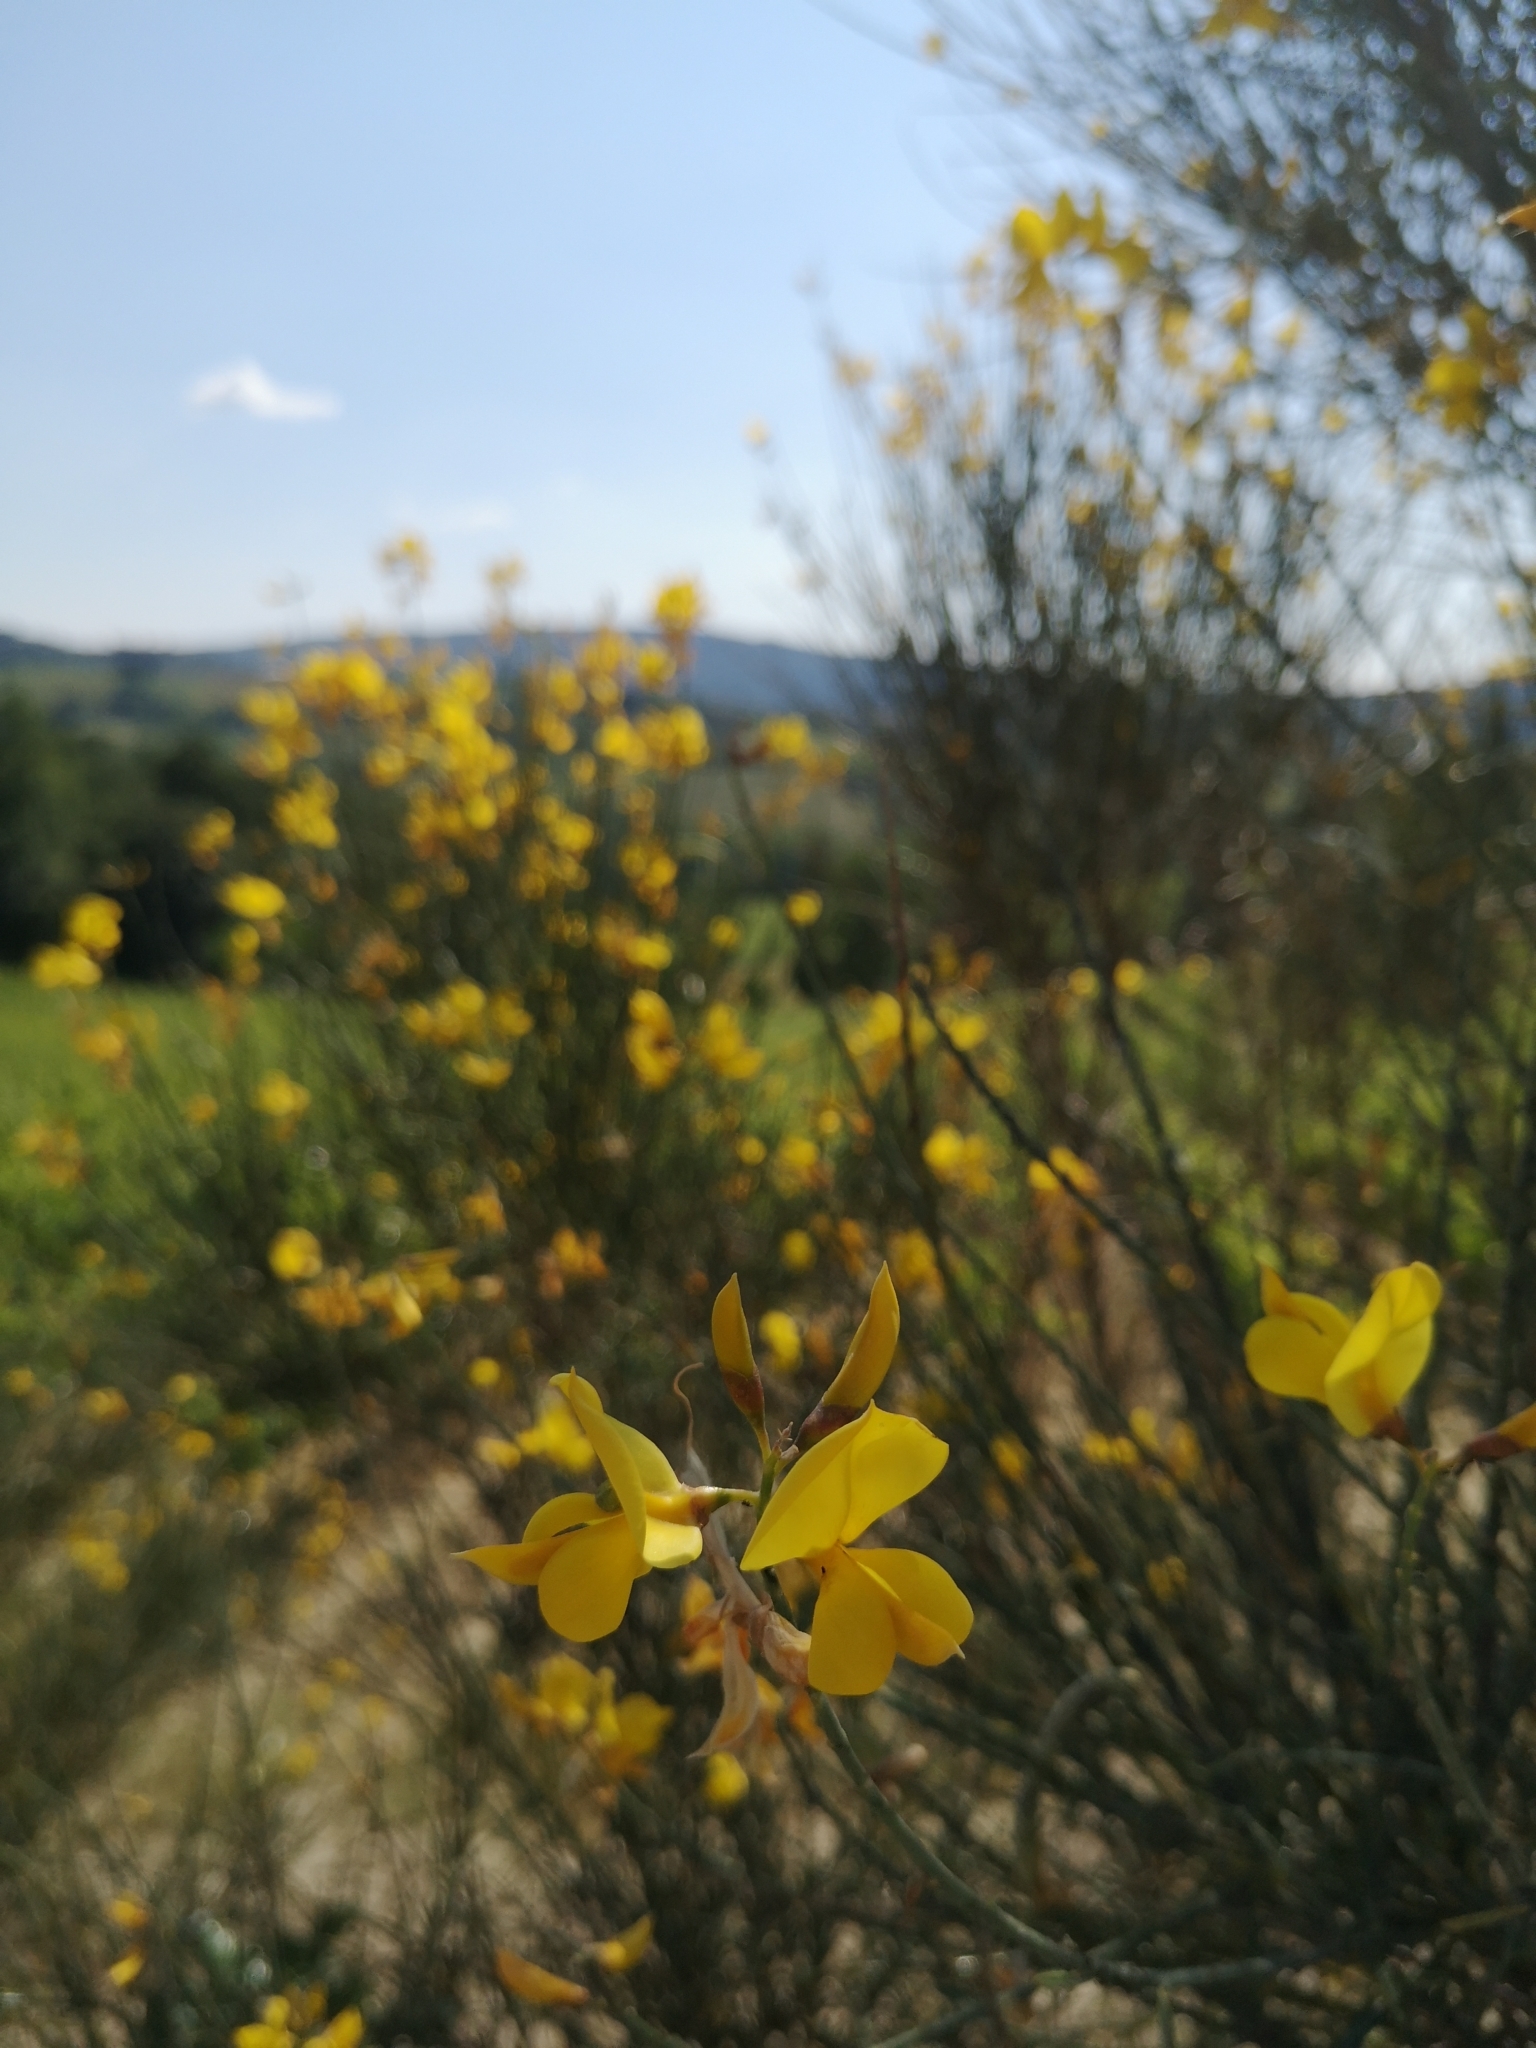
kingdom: Plantae
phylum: Tracheophyta
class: Magnoliopsida
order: Fabales
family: Fabaceae
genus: Spartium
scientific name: Spartium junceum
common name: Spanish broom
